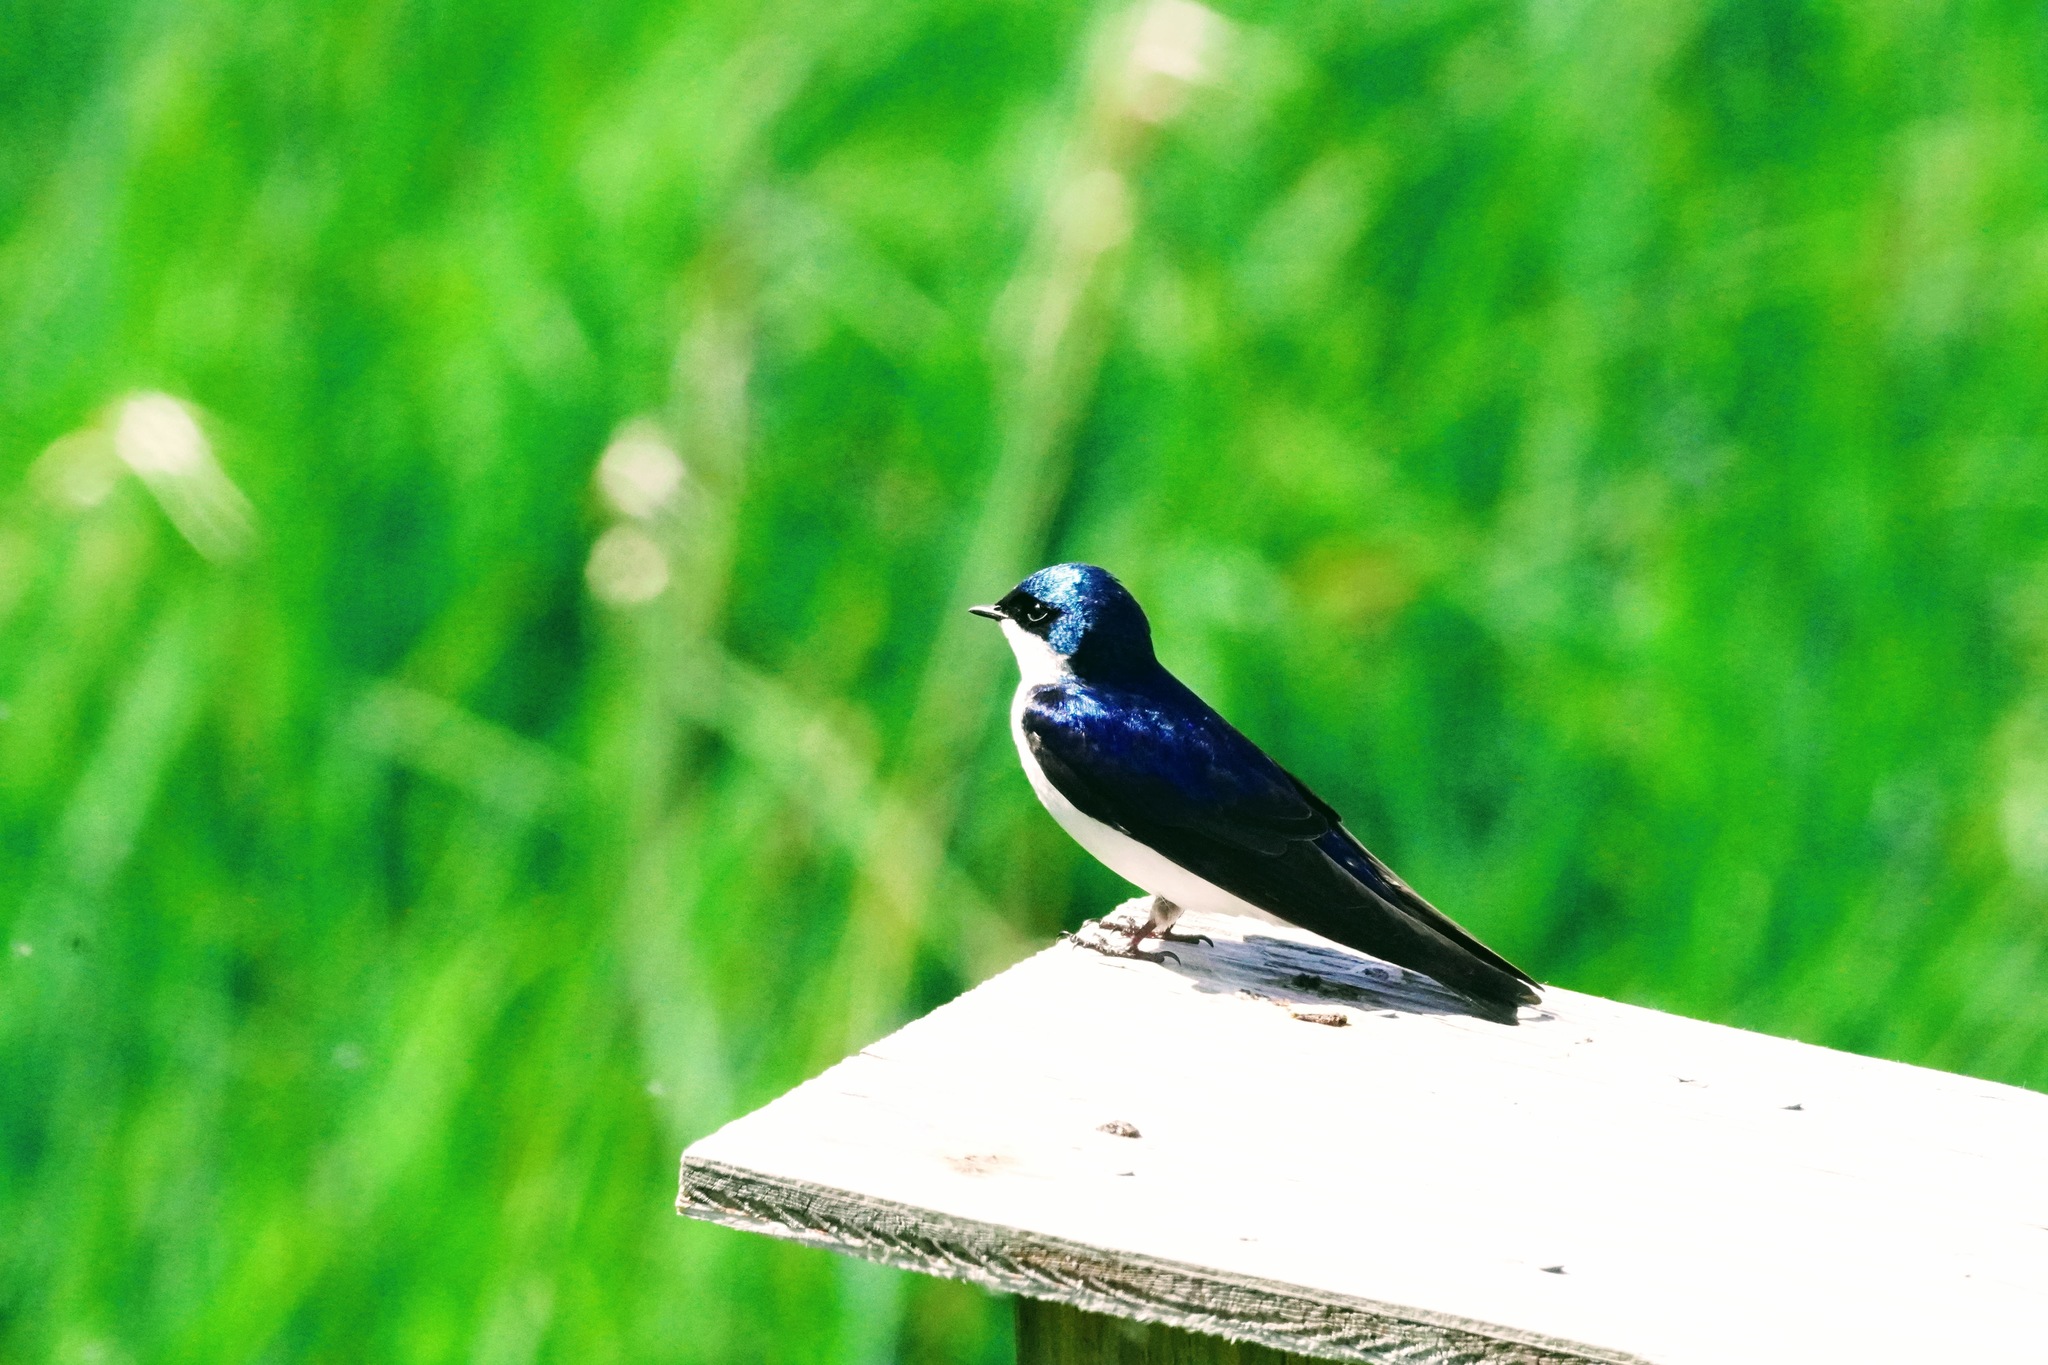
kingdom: Animalia
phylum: Chordata
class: Aves
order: Passeriformes
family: Hirundinidae
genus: Tachycineta
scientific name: Tachycineta bicolor
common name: Tree swallow
